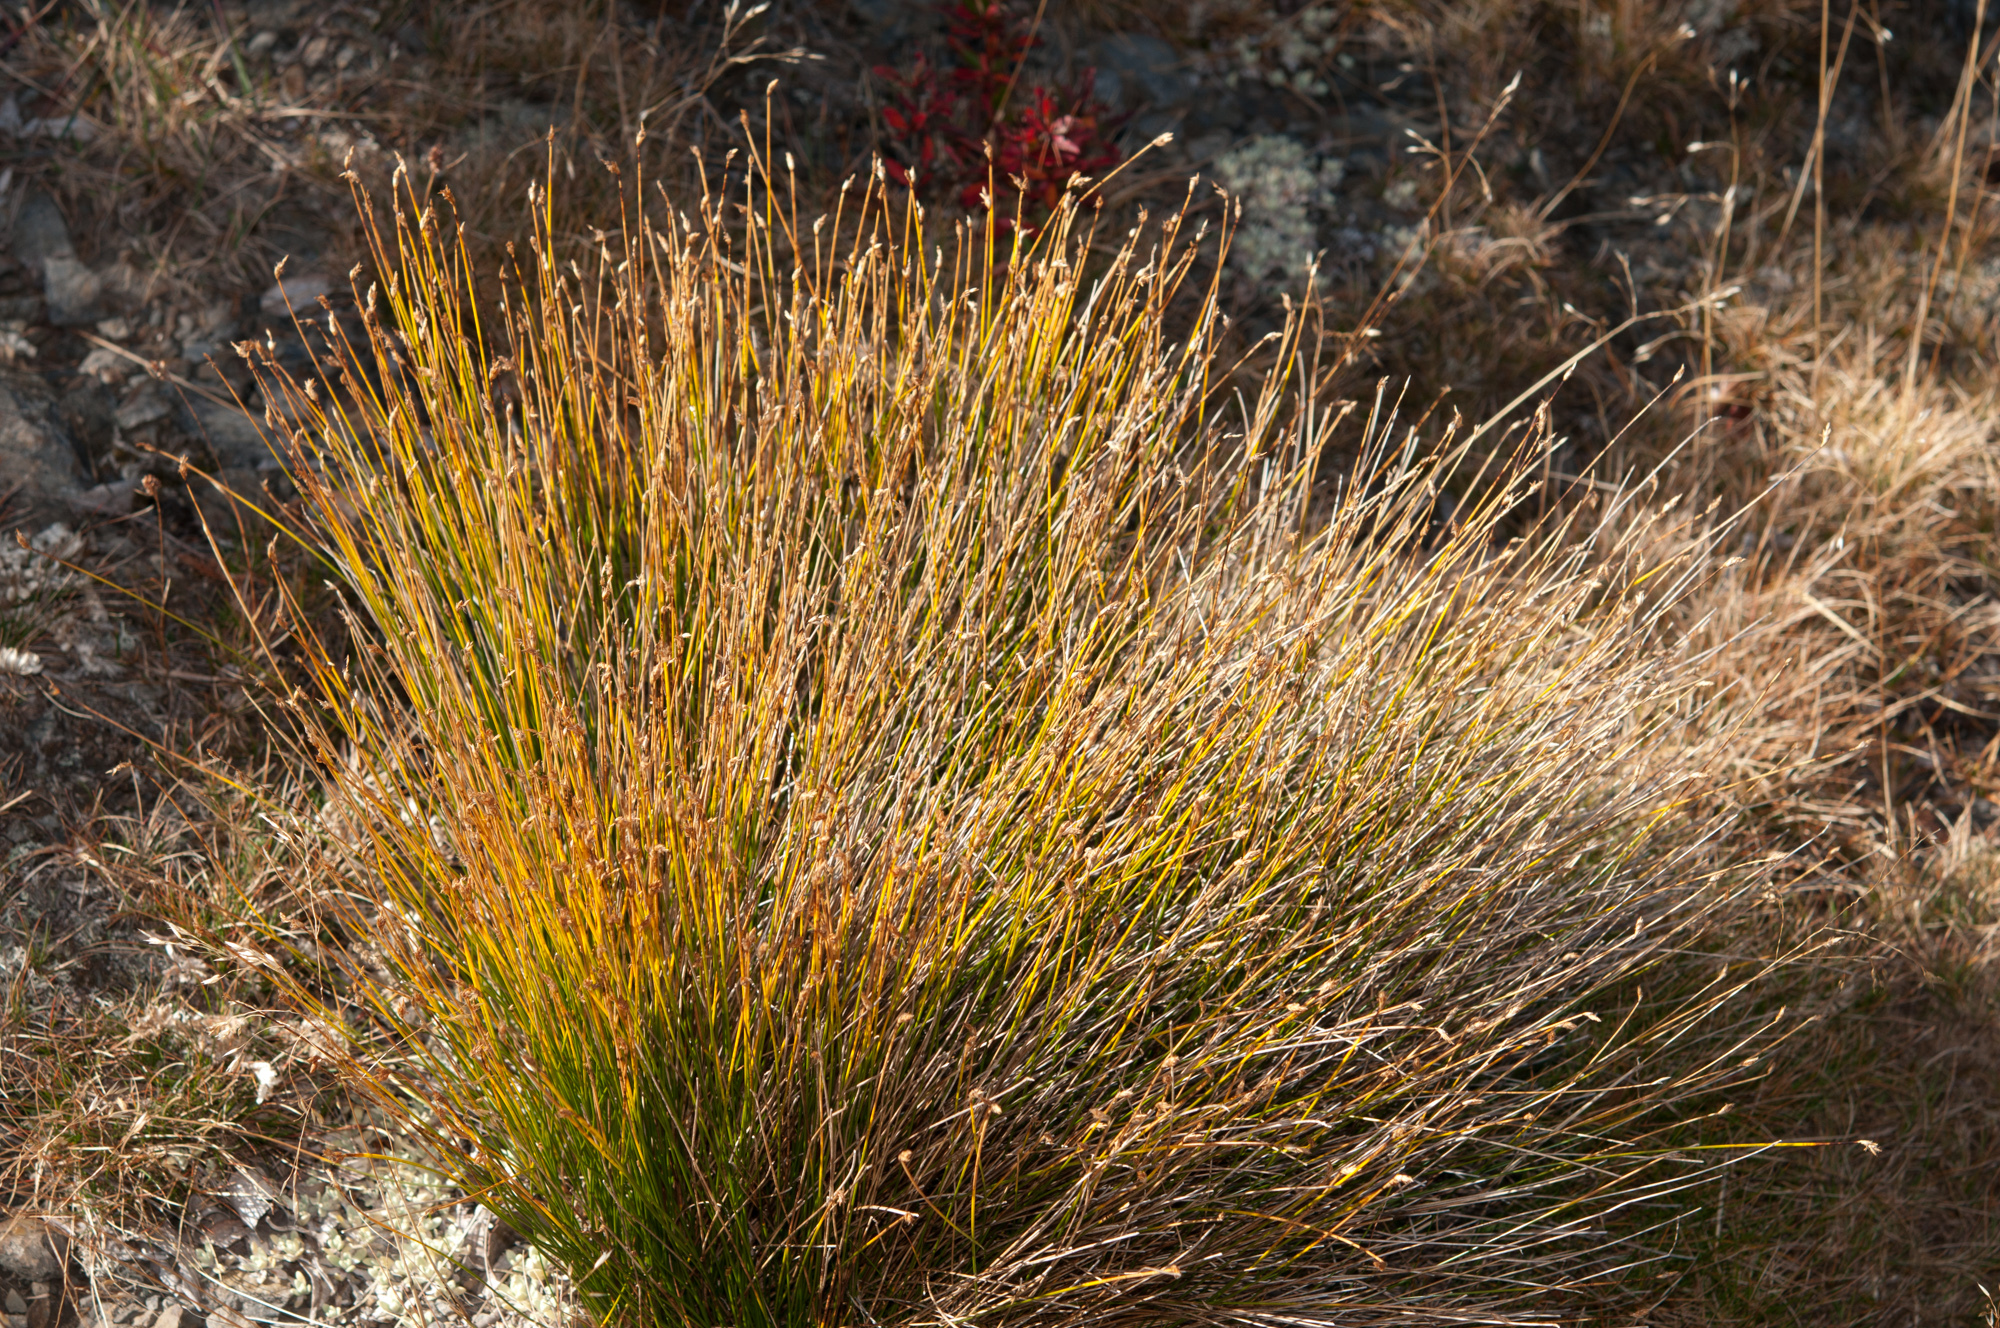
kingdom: Plantae
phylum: Tracheophyta
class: Liliopsida
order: Poales
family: Cyperaceae
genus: Trichophorum
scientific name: Trichophorum subcapitatum
